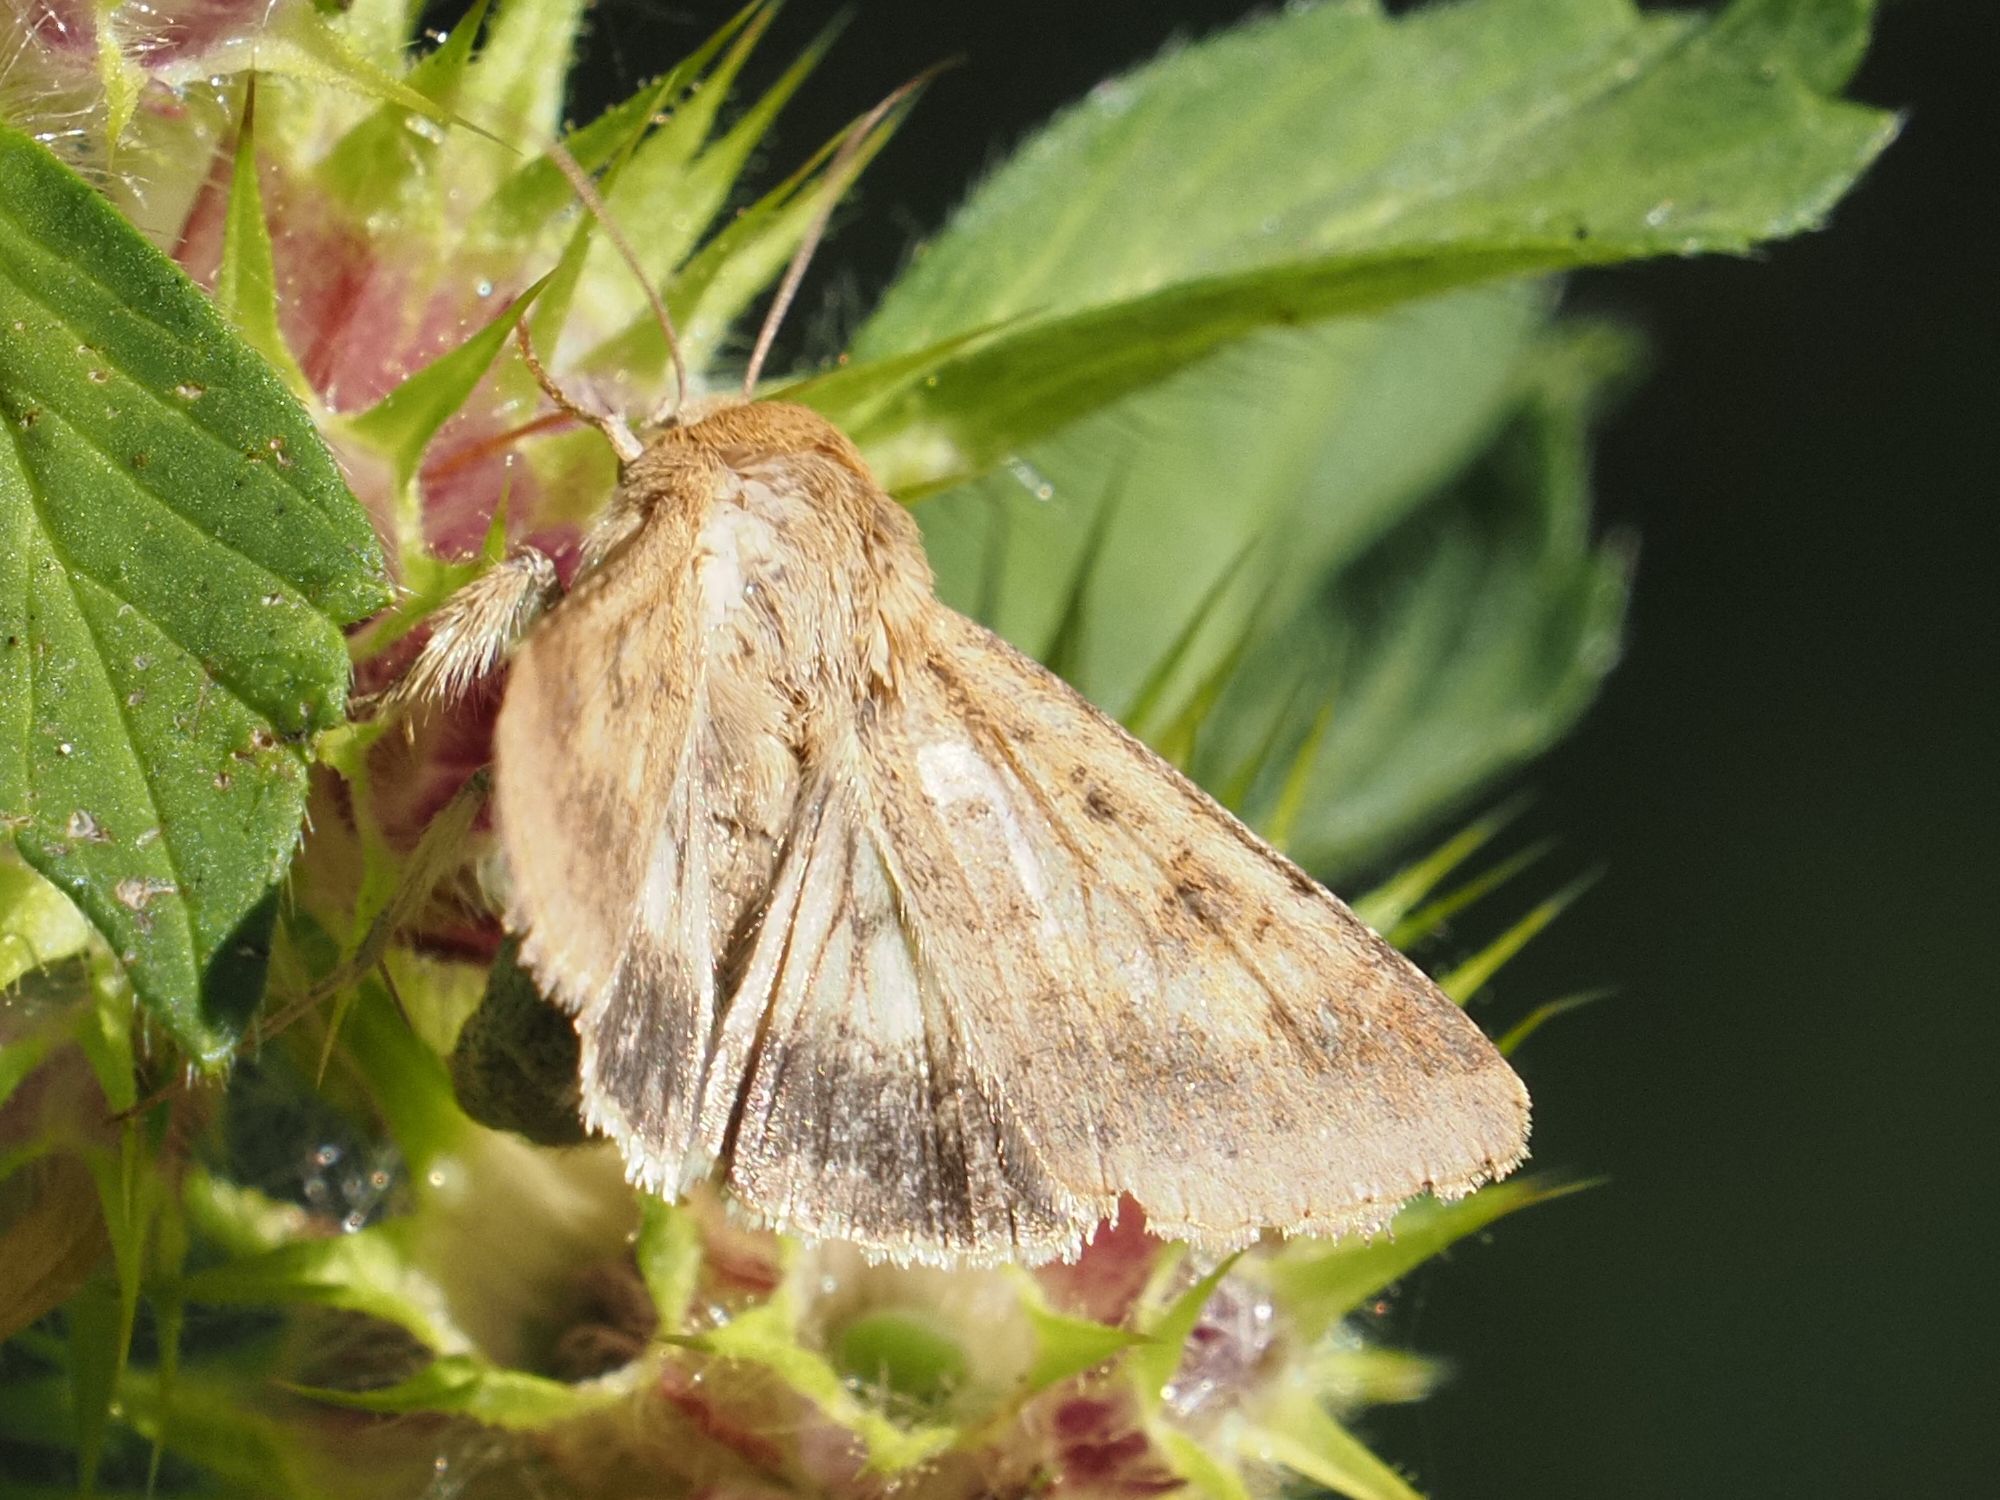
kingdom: Animalia
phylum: Arthropoda
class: Insecta
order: Lepidoptera
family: Noctuidae
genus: Helicoverpa
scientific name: Helicoverpa armigera
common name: Cotton bollworm
